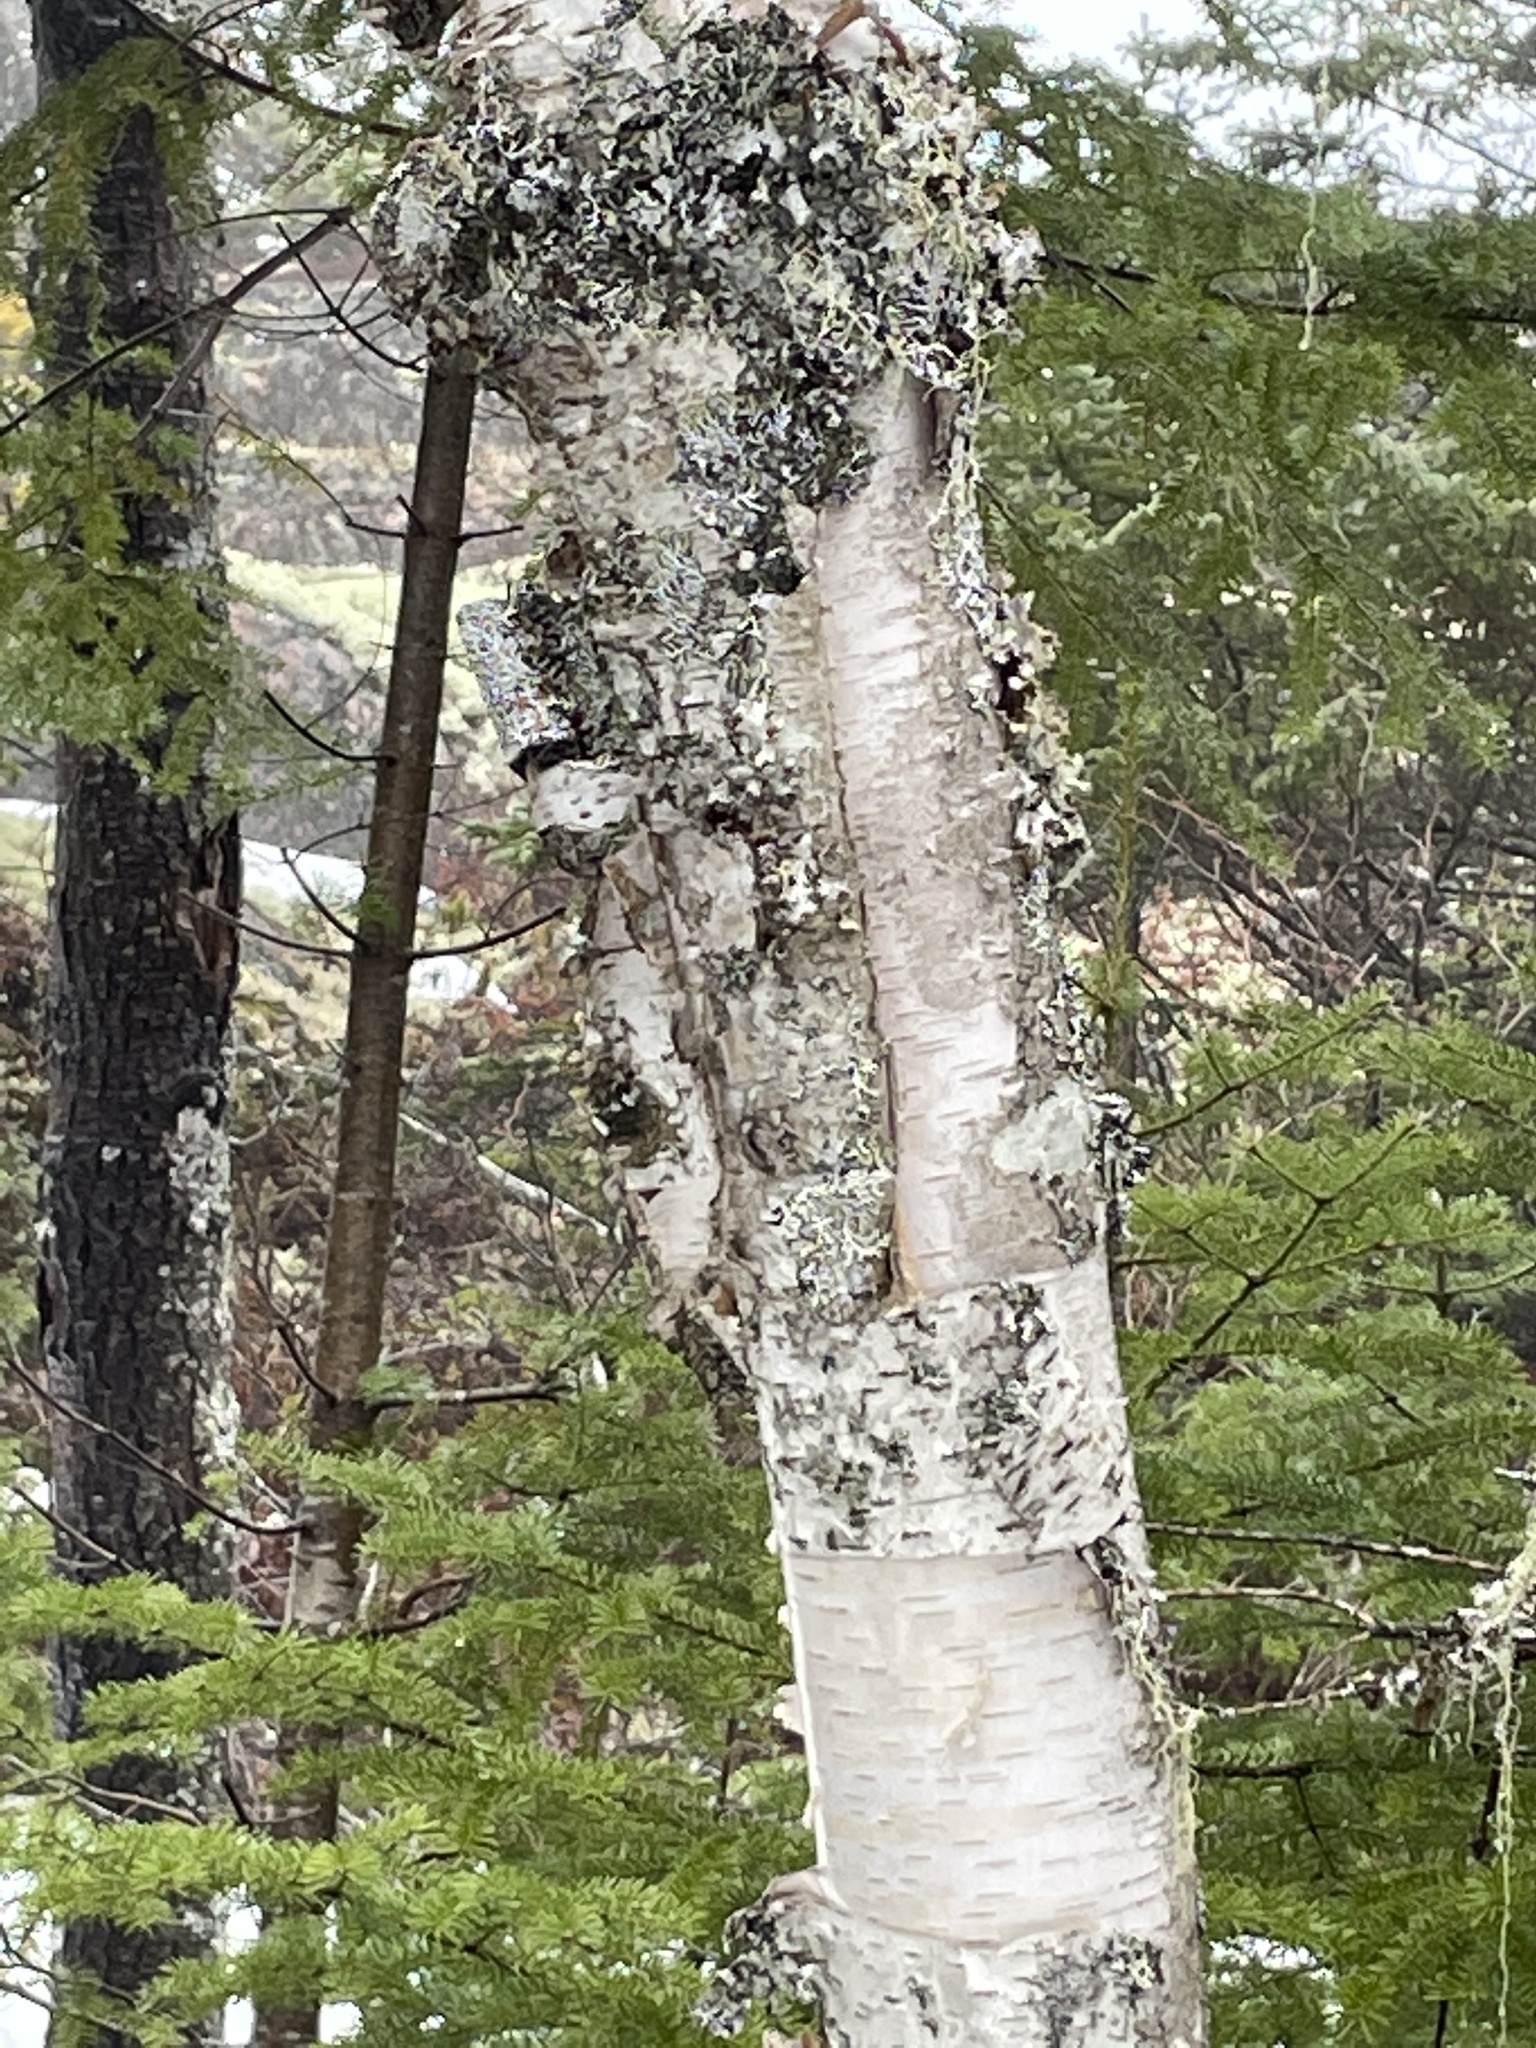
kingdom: Plantae
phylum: Tracheophyta
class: Magnoliopsida
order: Fagales
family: Betulaceae
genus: Betula
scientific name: Betula papyrifera
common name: Paper birch
